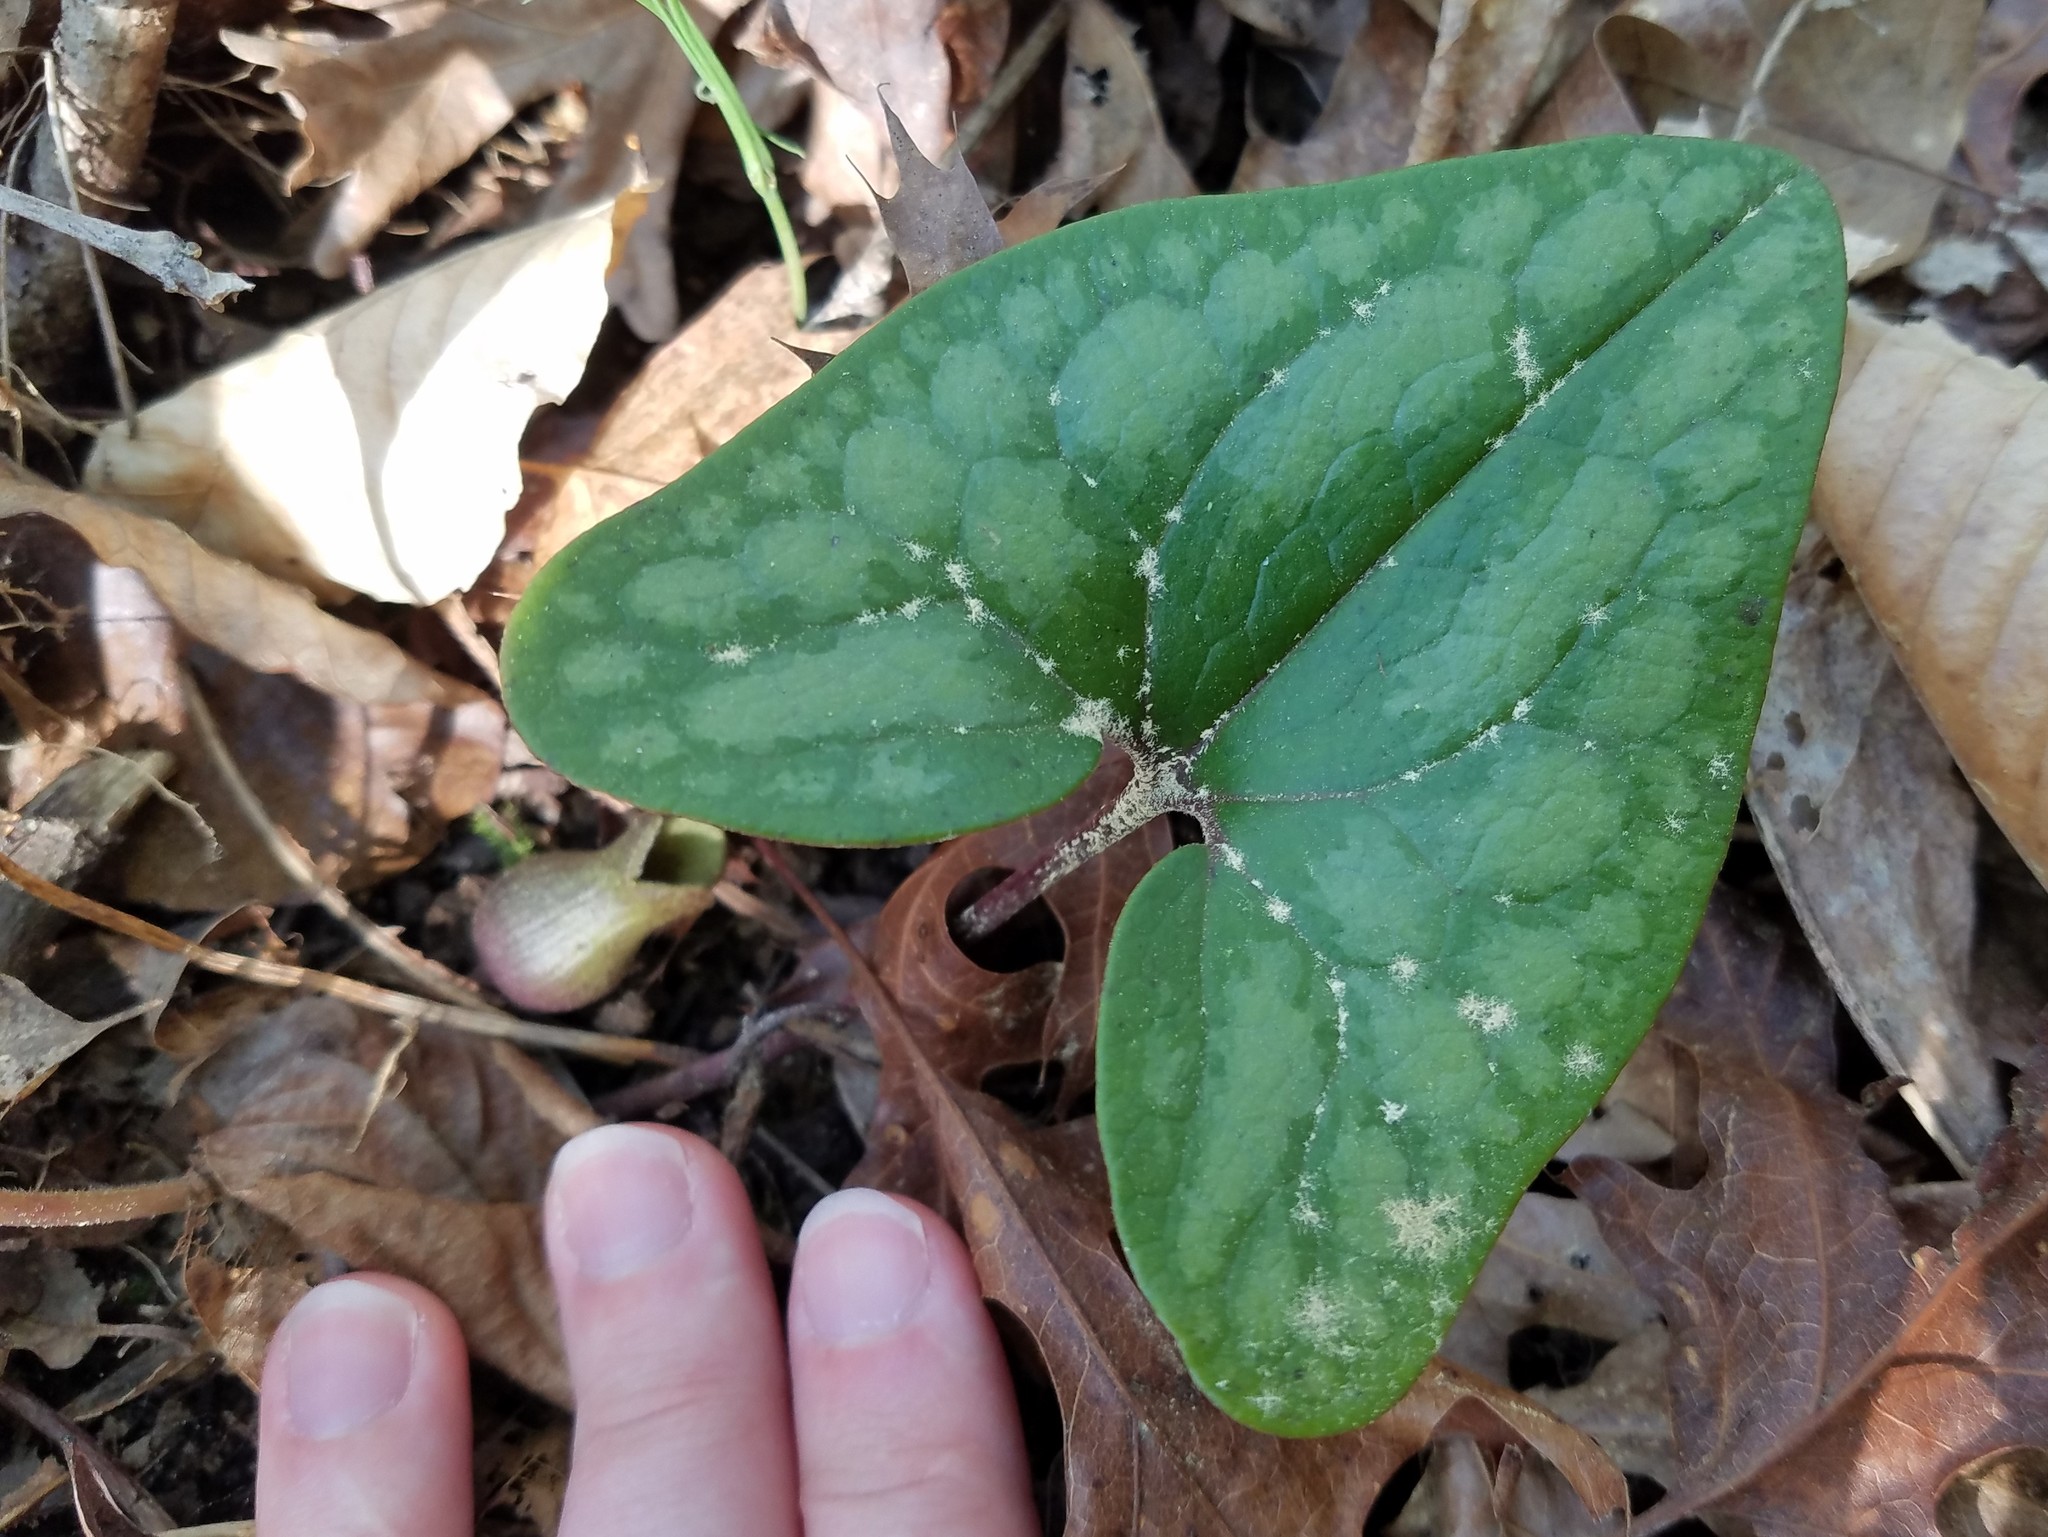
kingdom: Plantae
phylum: Tracheophyta
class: Magnoliopsida
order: Piperales
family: Aristolochiaceae
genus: Hexastylis
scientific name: Hexastylis arifolia
